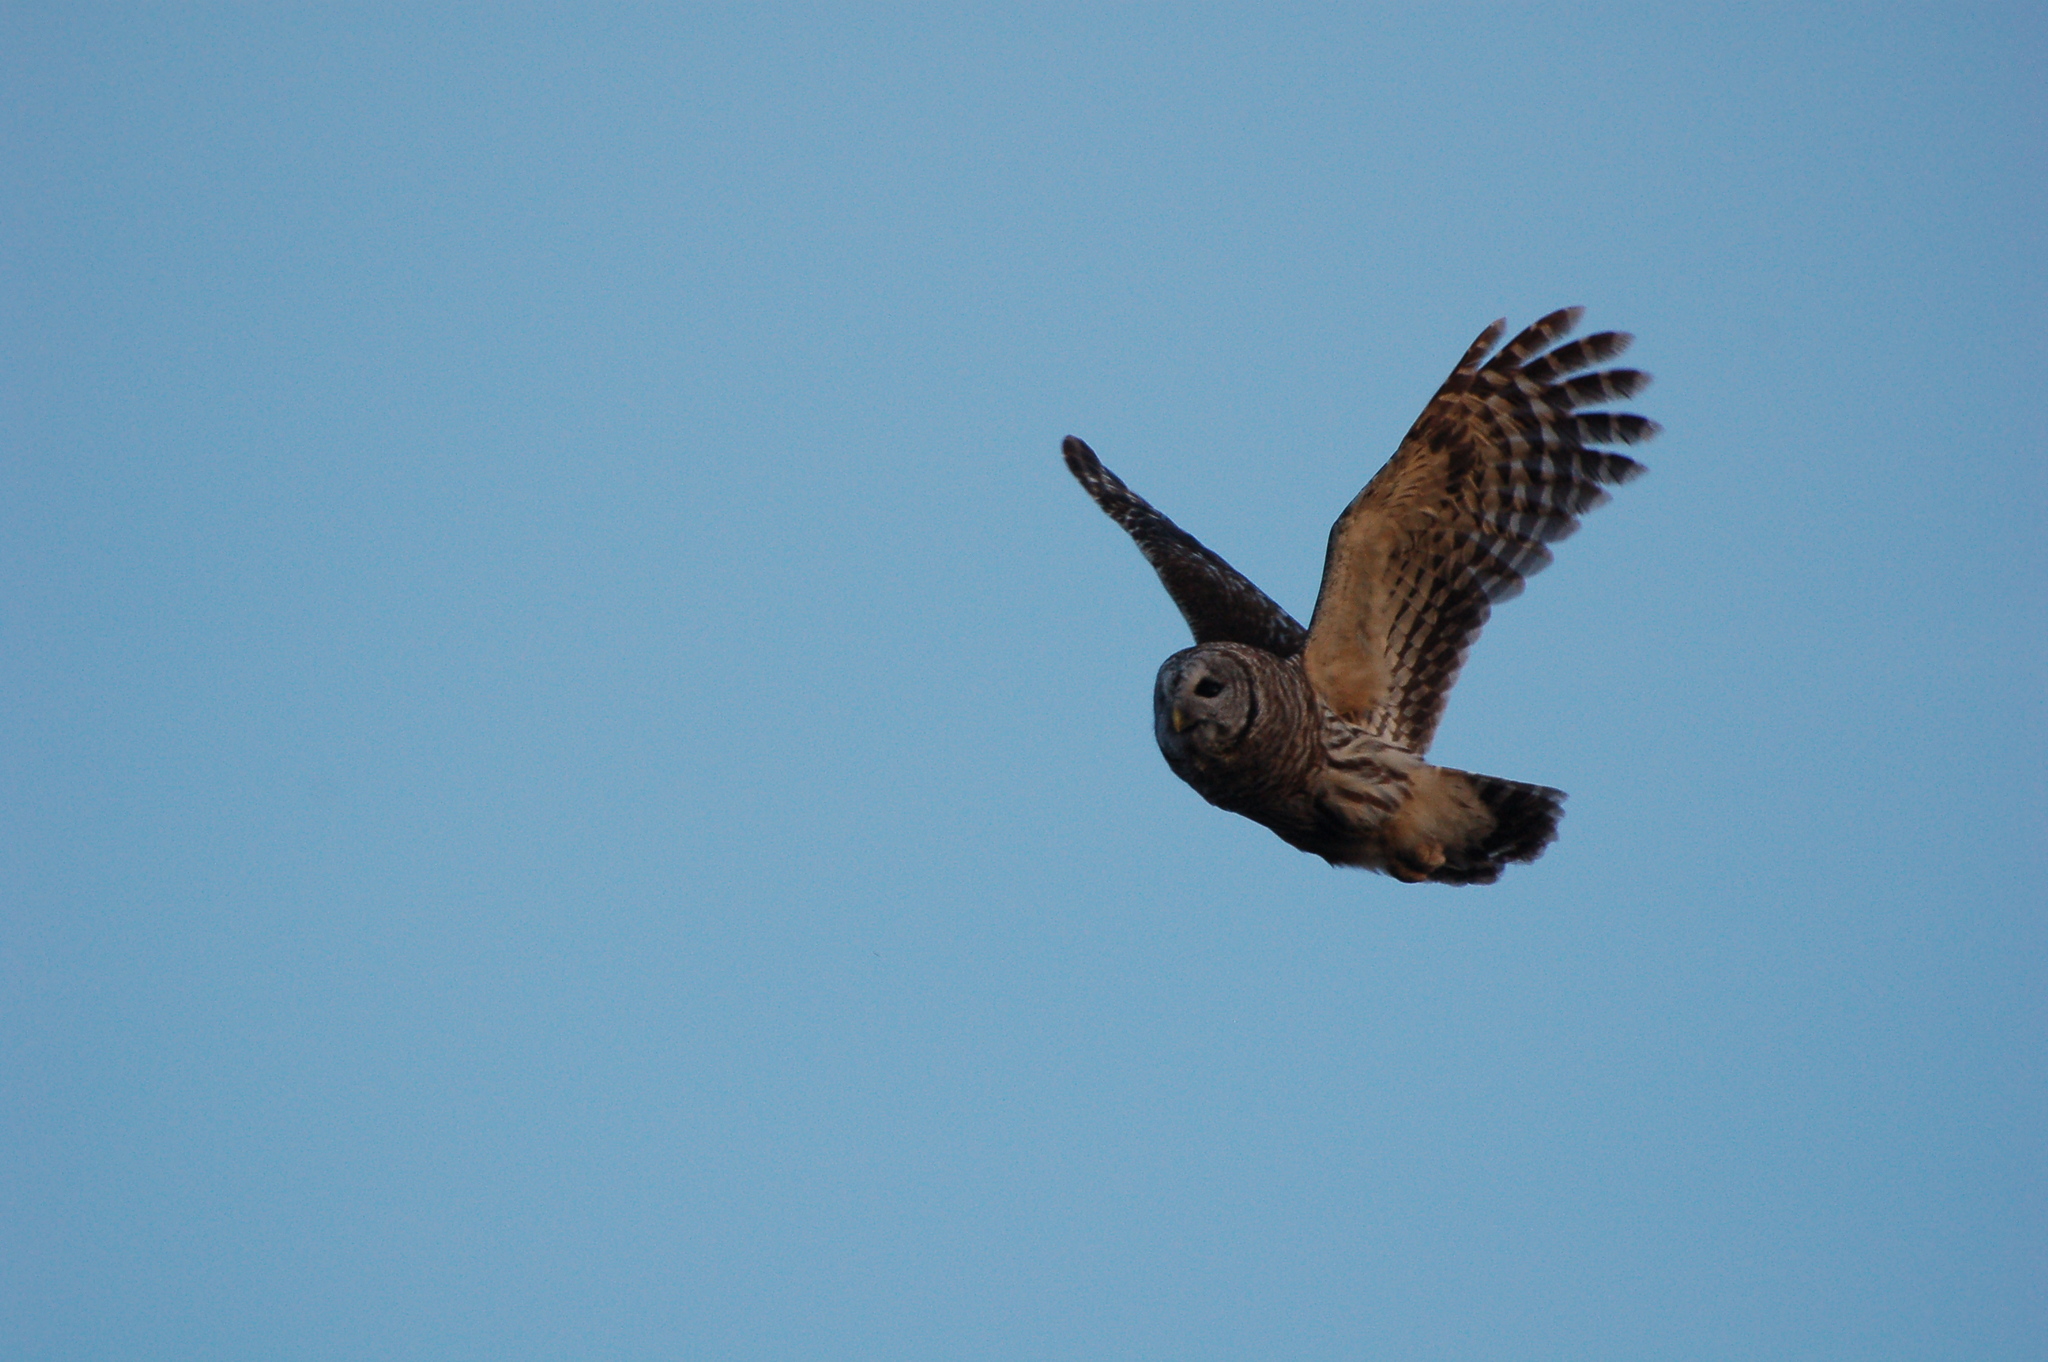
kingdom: Animalia
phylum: Chordata
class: Aves
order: Strigiformes
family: Strigidae
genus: Strix
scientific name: Strix varia
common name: Barred owl
